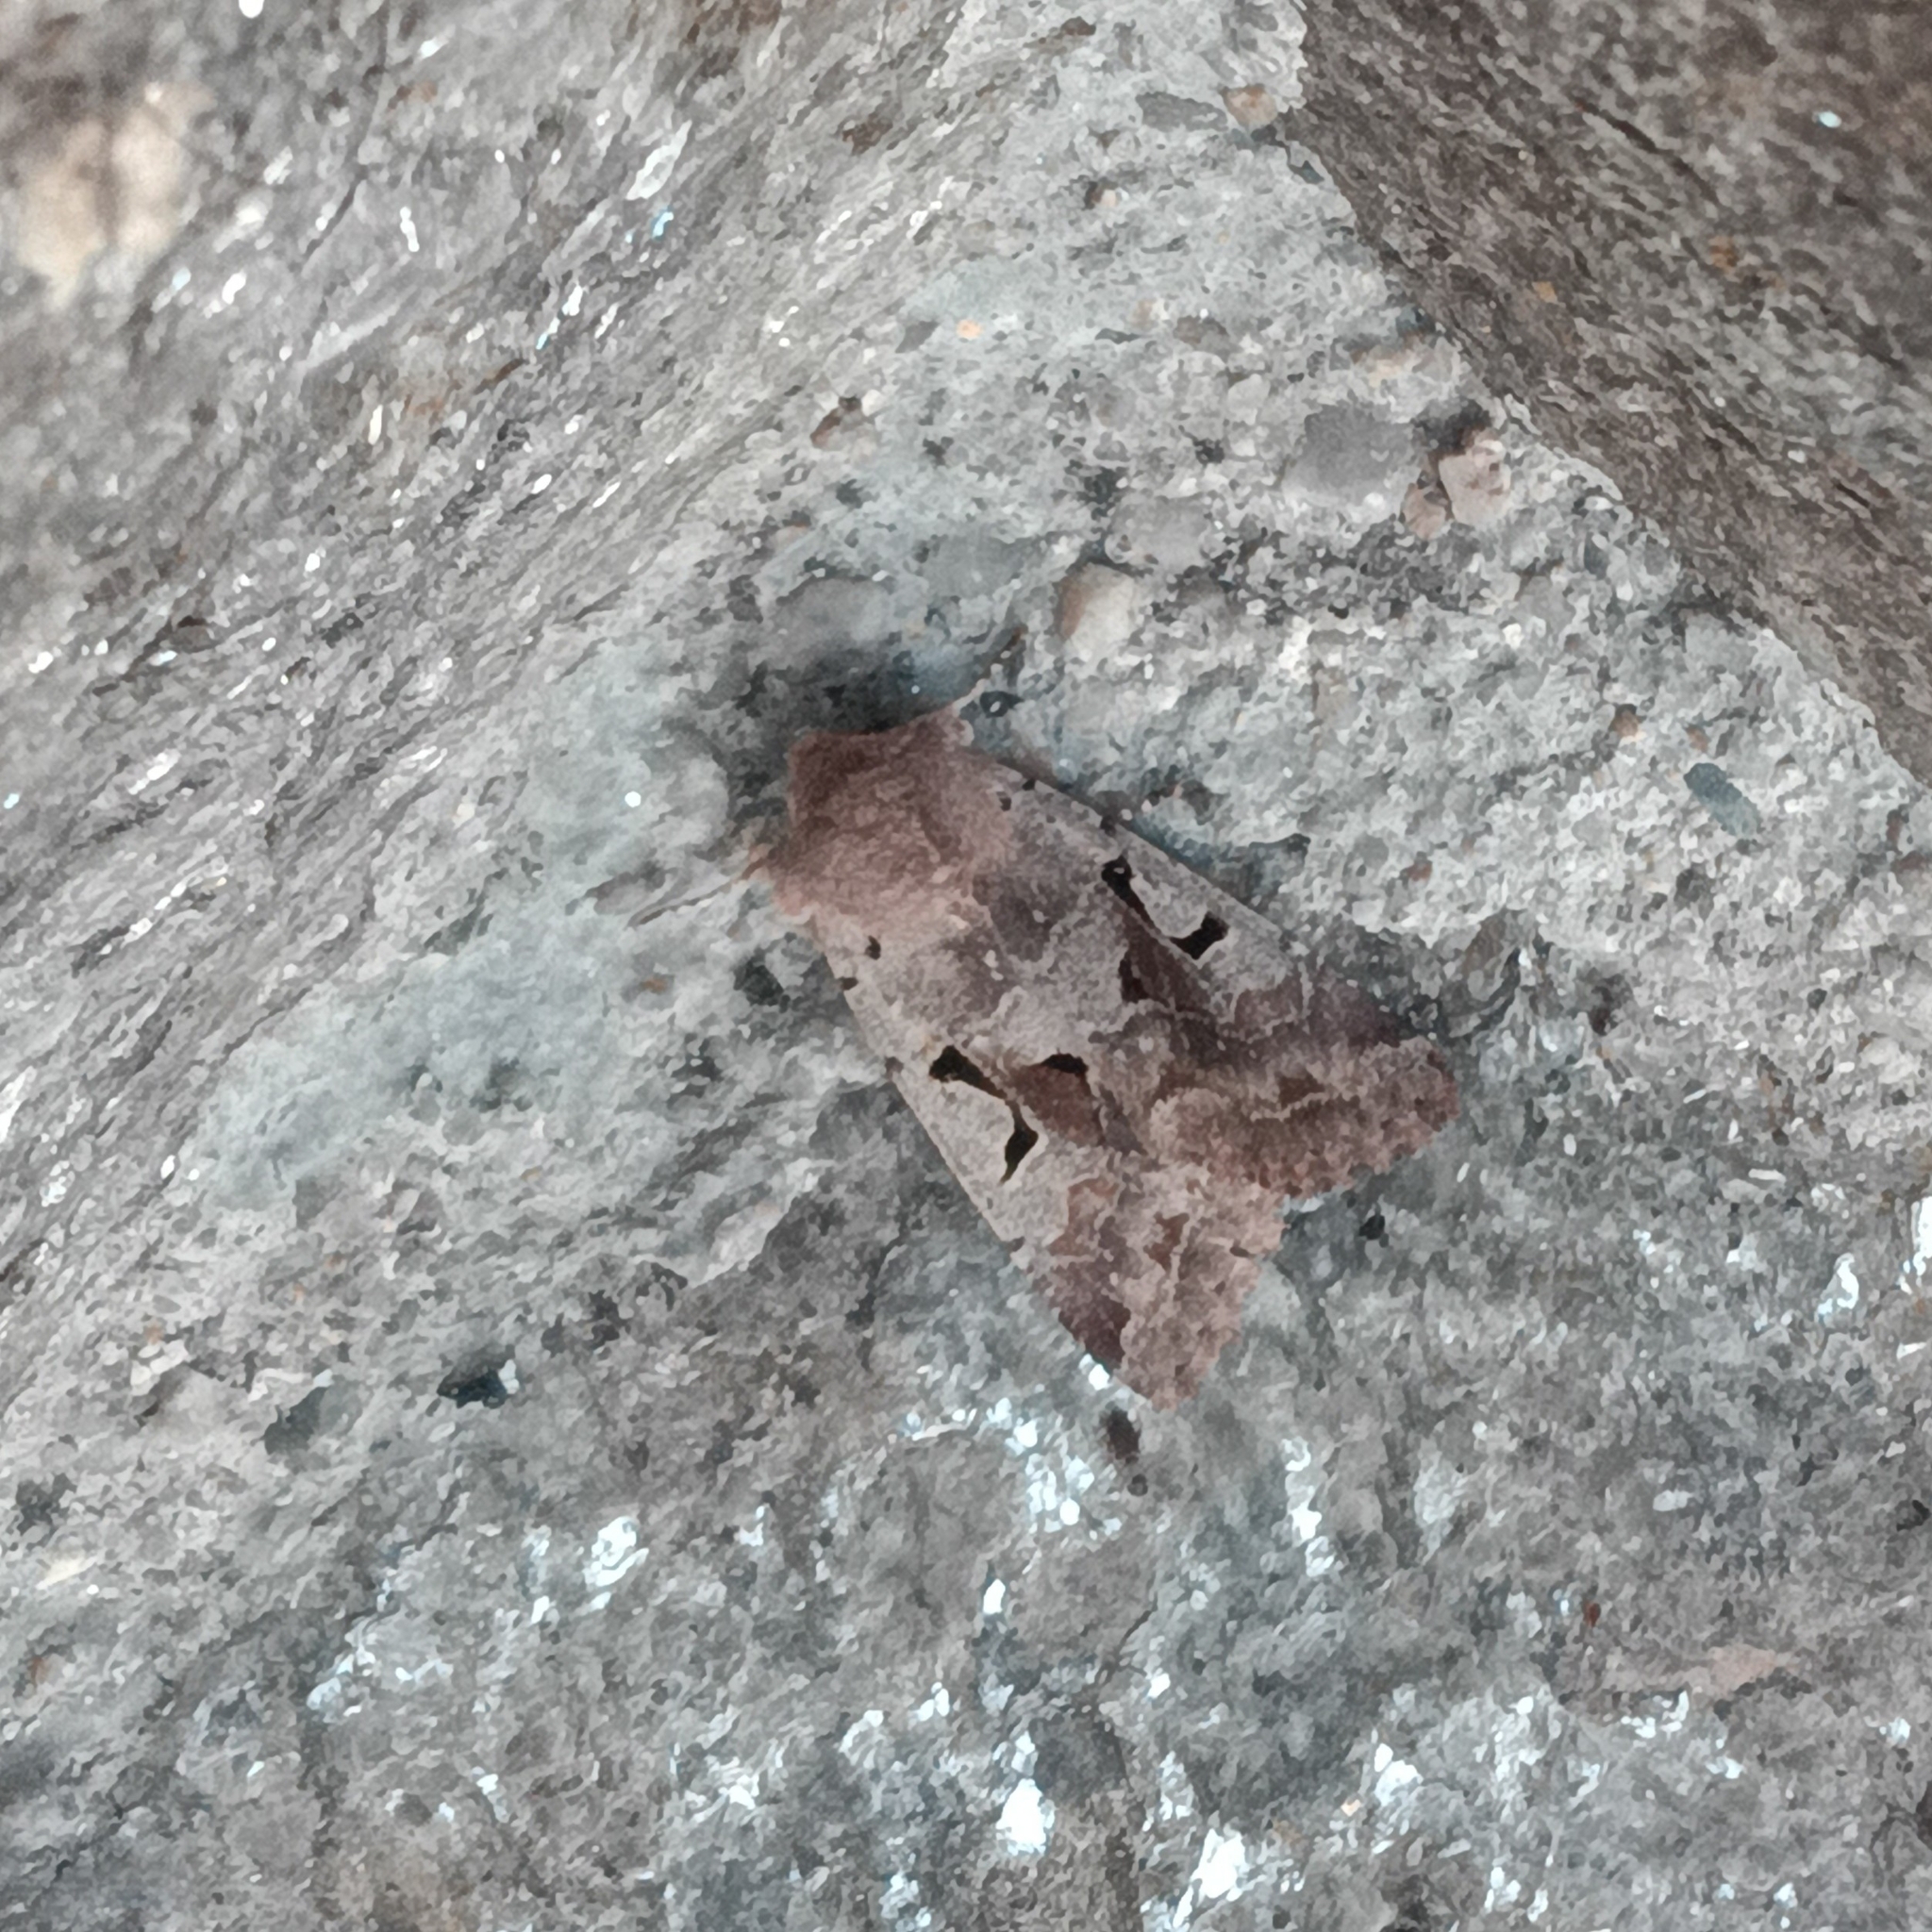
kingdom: Animalia
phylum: Arthropoda
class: Insecta
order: Lepidoptera
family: Noctuidae
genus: Orthosia
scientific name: Orthosia gothica
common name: Hebrew character
